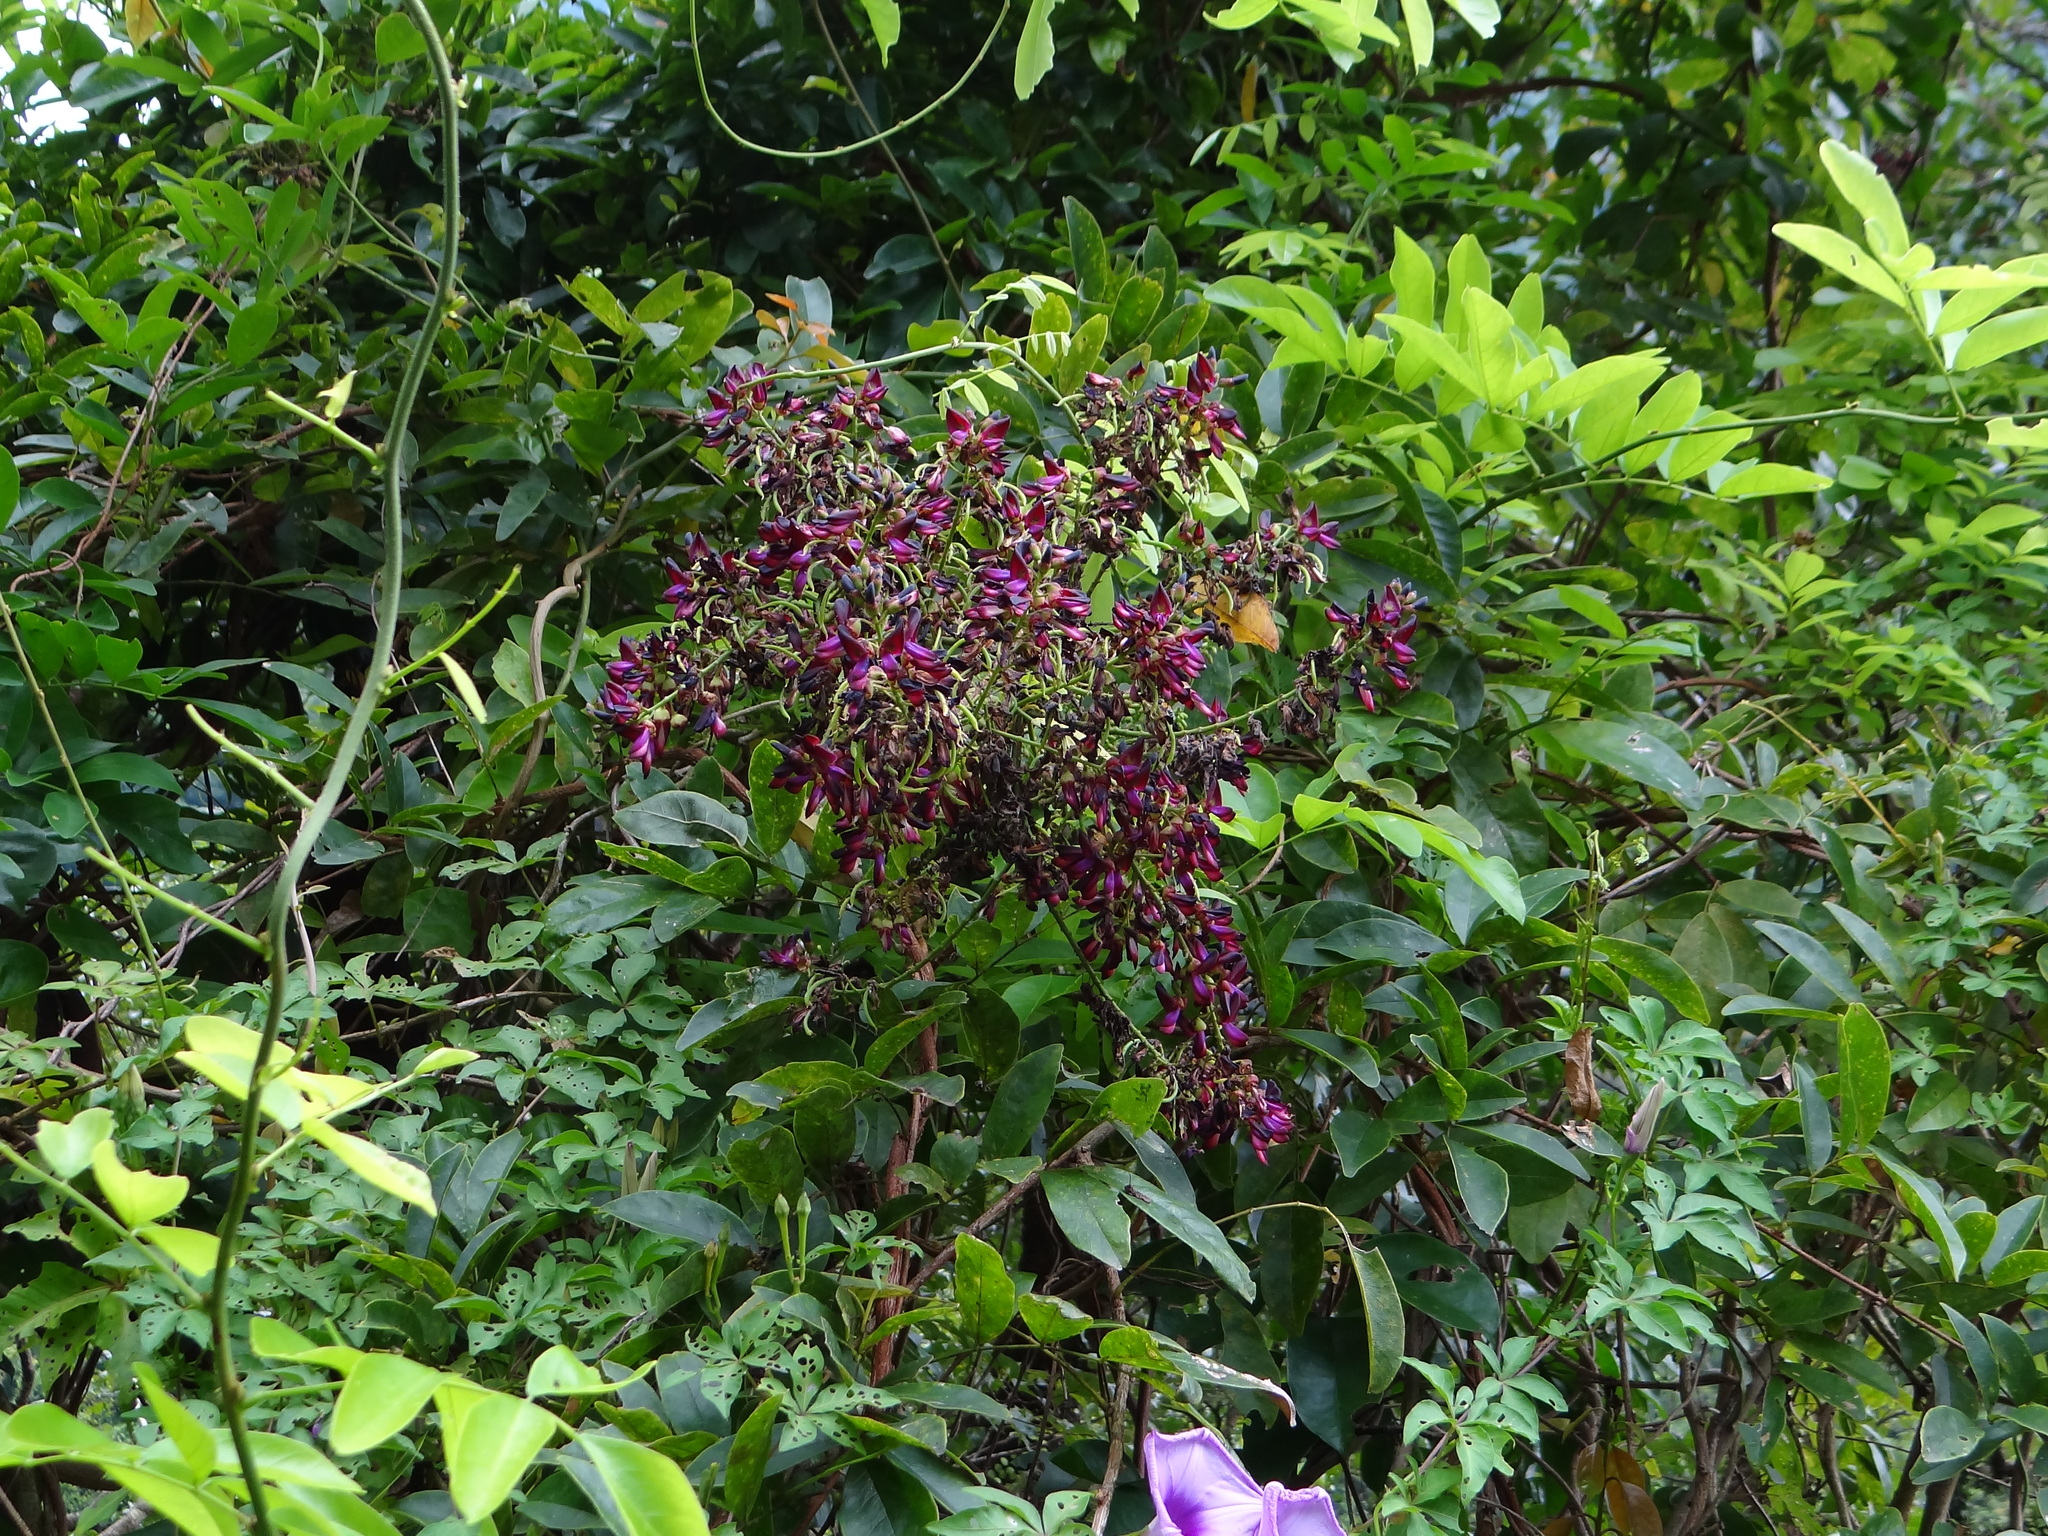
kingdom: Plantae
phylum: Tracheophyta
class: Magnoliopsida
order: Fabales
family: Fabaceae
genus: Wisteriopsis
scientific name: Wisteriopsis reticulata
